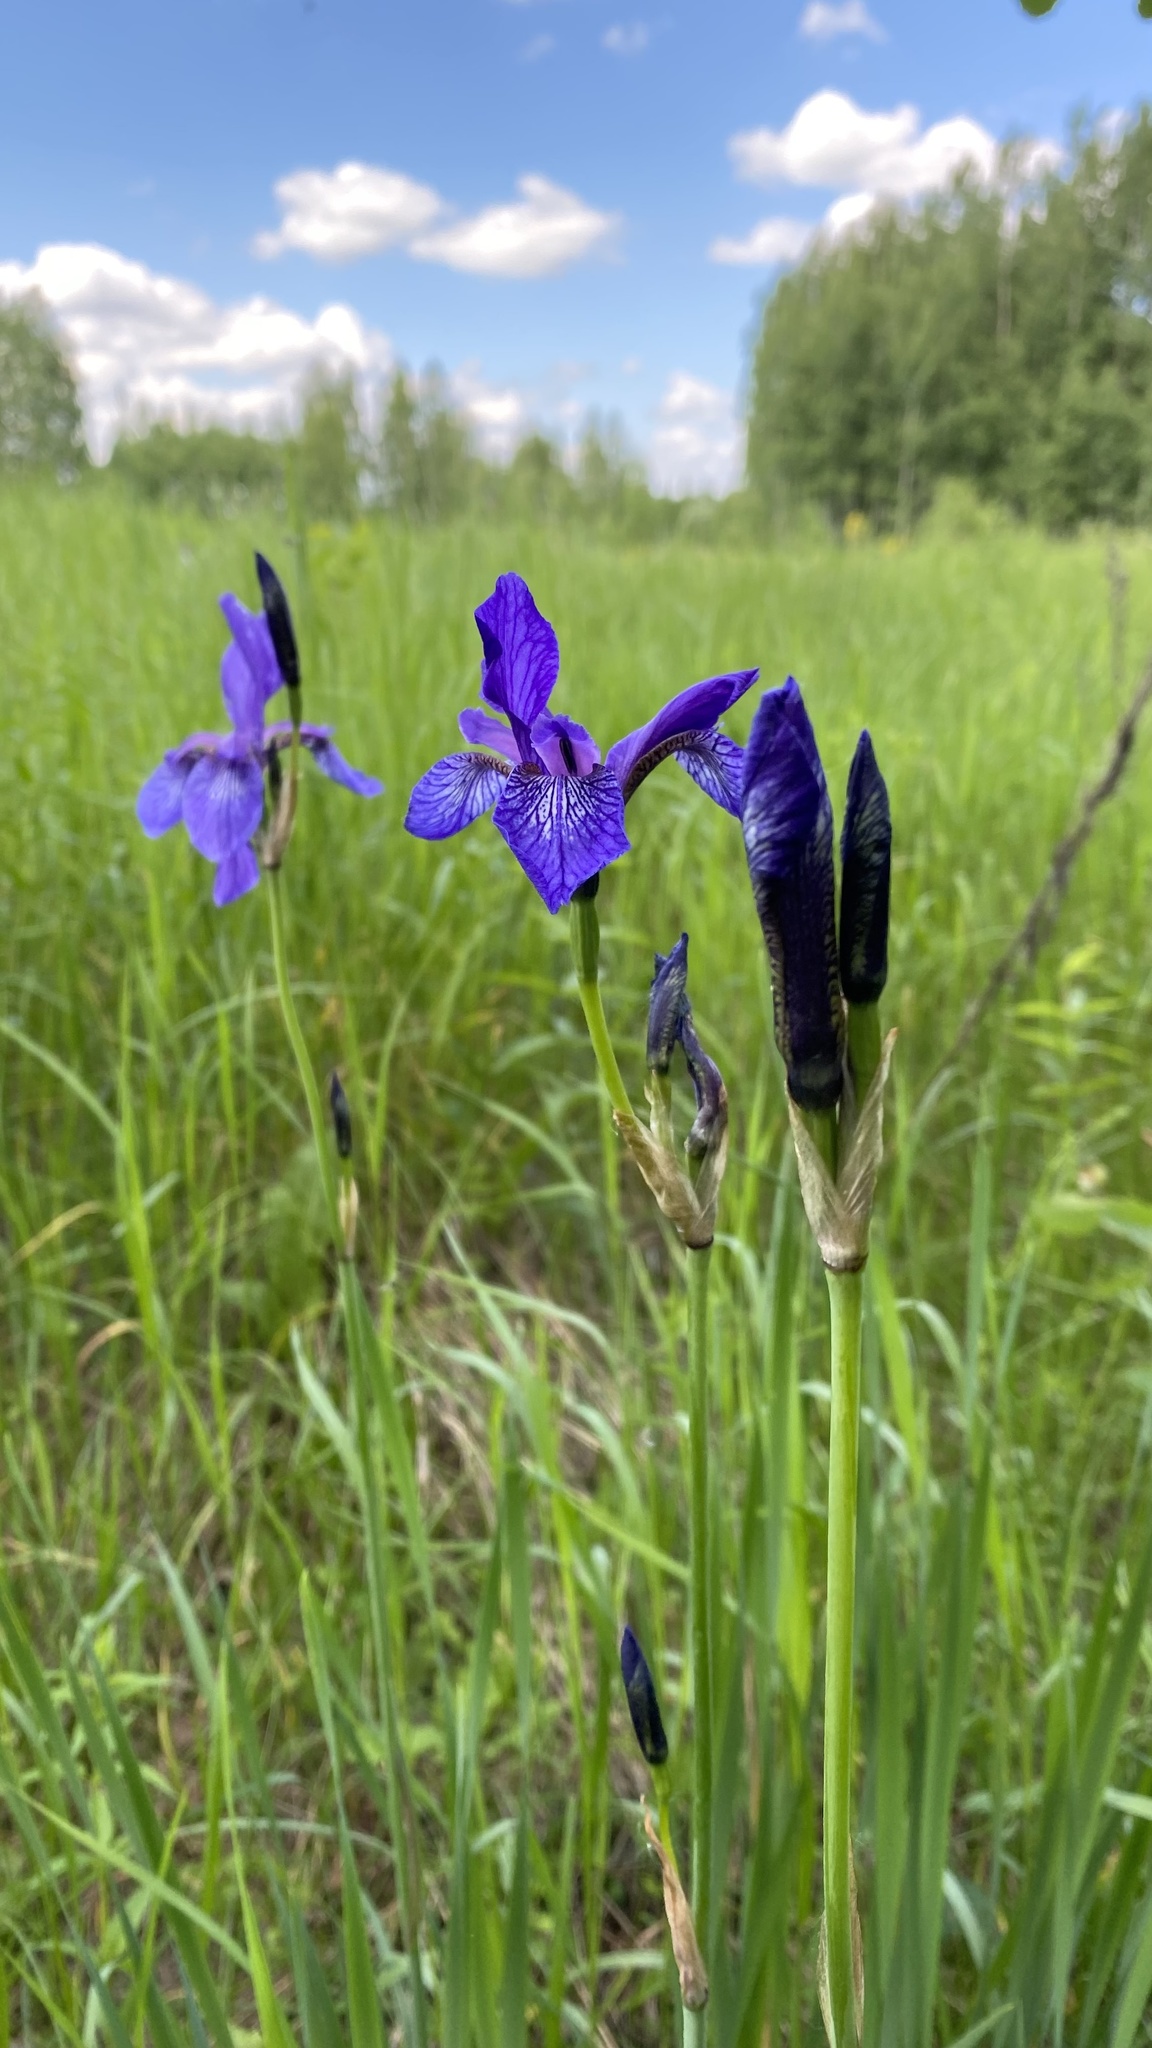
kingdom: Plantae
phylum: Tracheophyta
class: Liliopsida
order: Asparagales
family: Iridaceae
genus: Iris
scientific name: Iris sibirica
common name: Siberian iris
